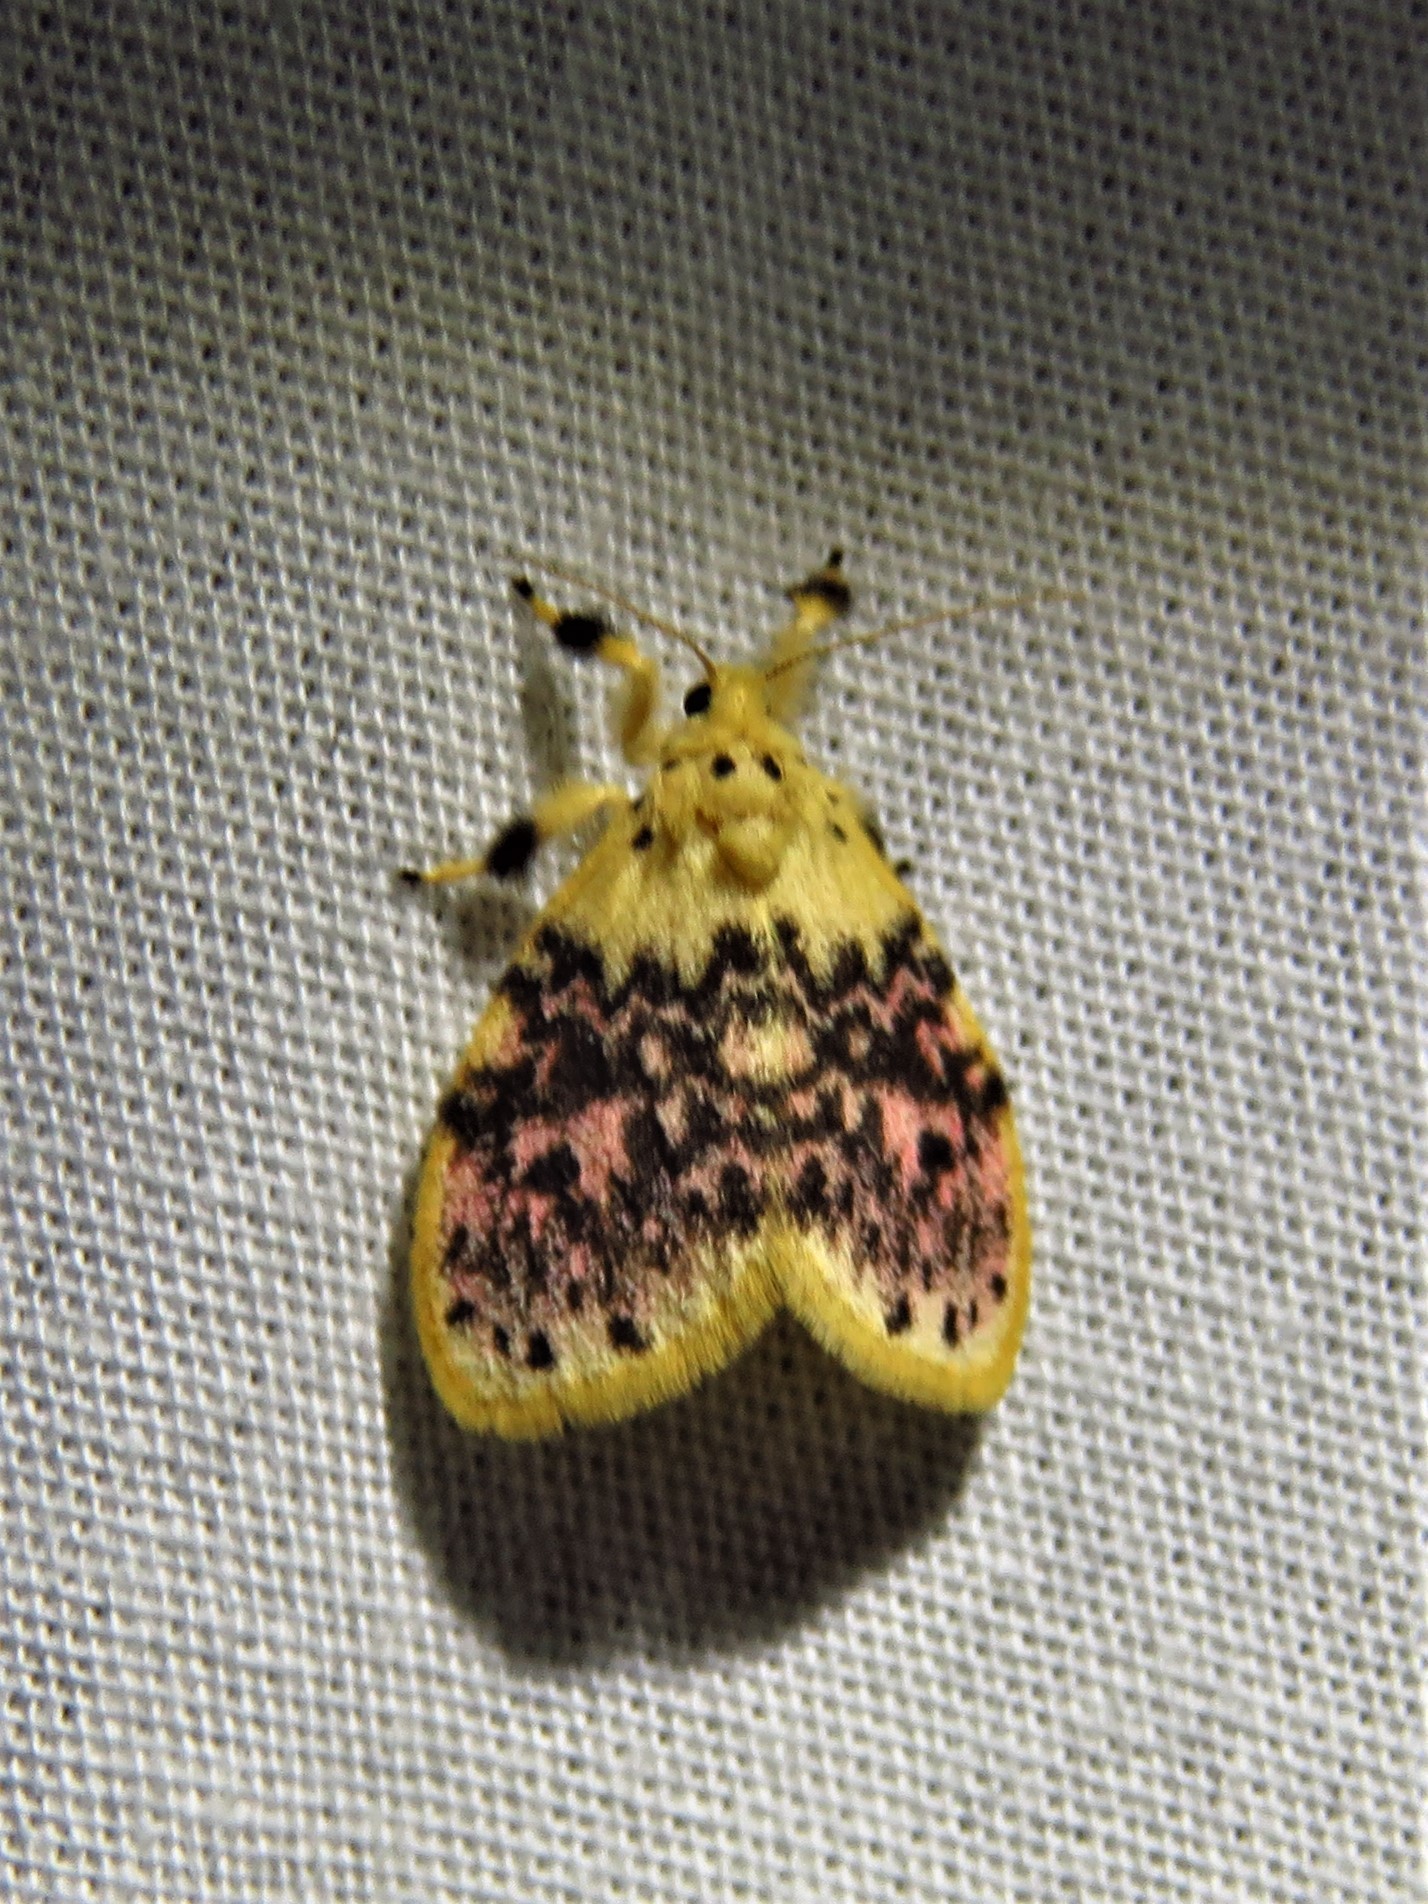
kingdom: Animalia
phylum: Arthropoda
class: Insecta
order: Lepidoptera
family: Erebidae
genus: Siccasura
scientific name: Siccasura numida
